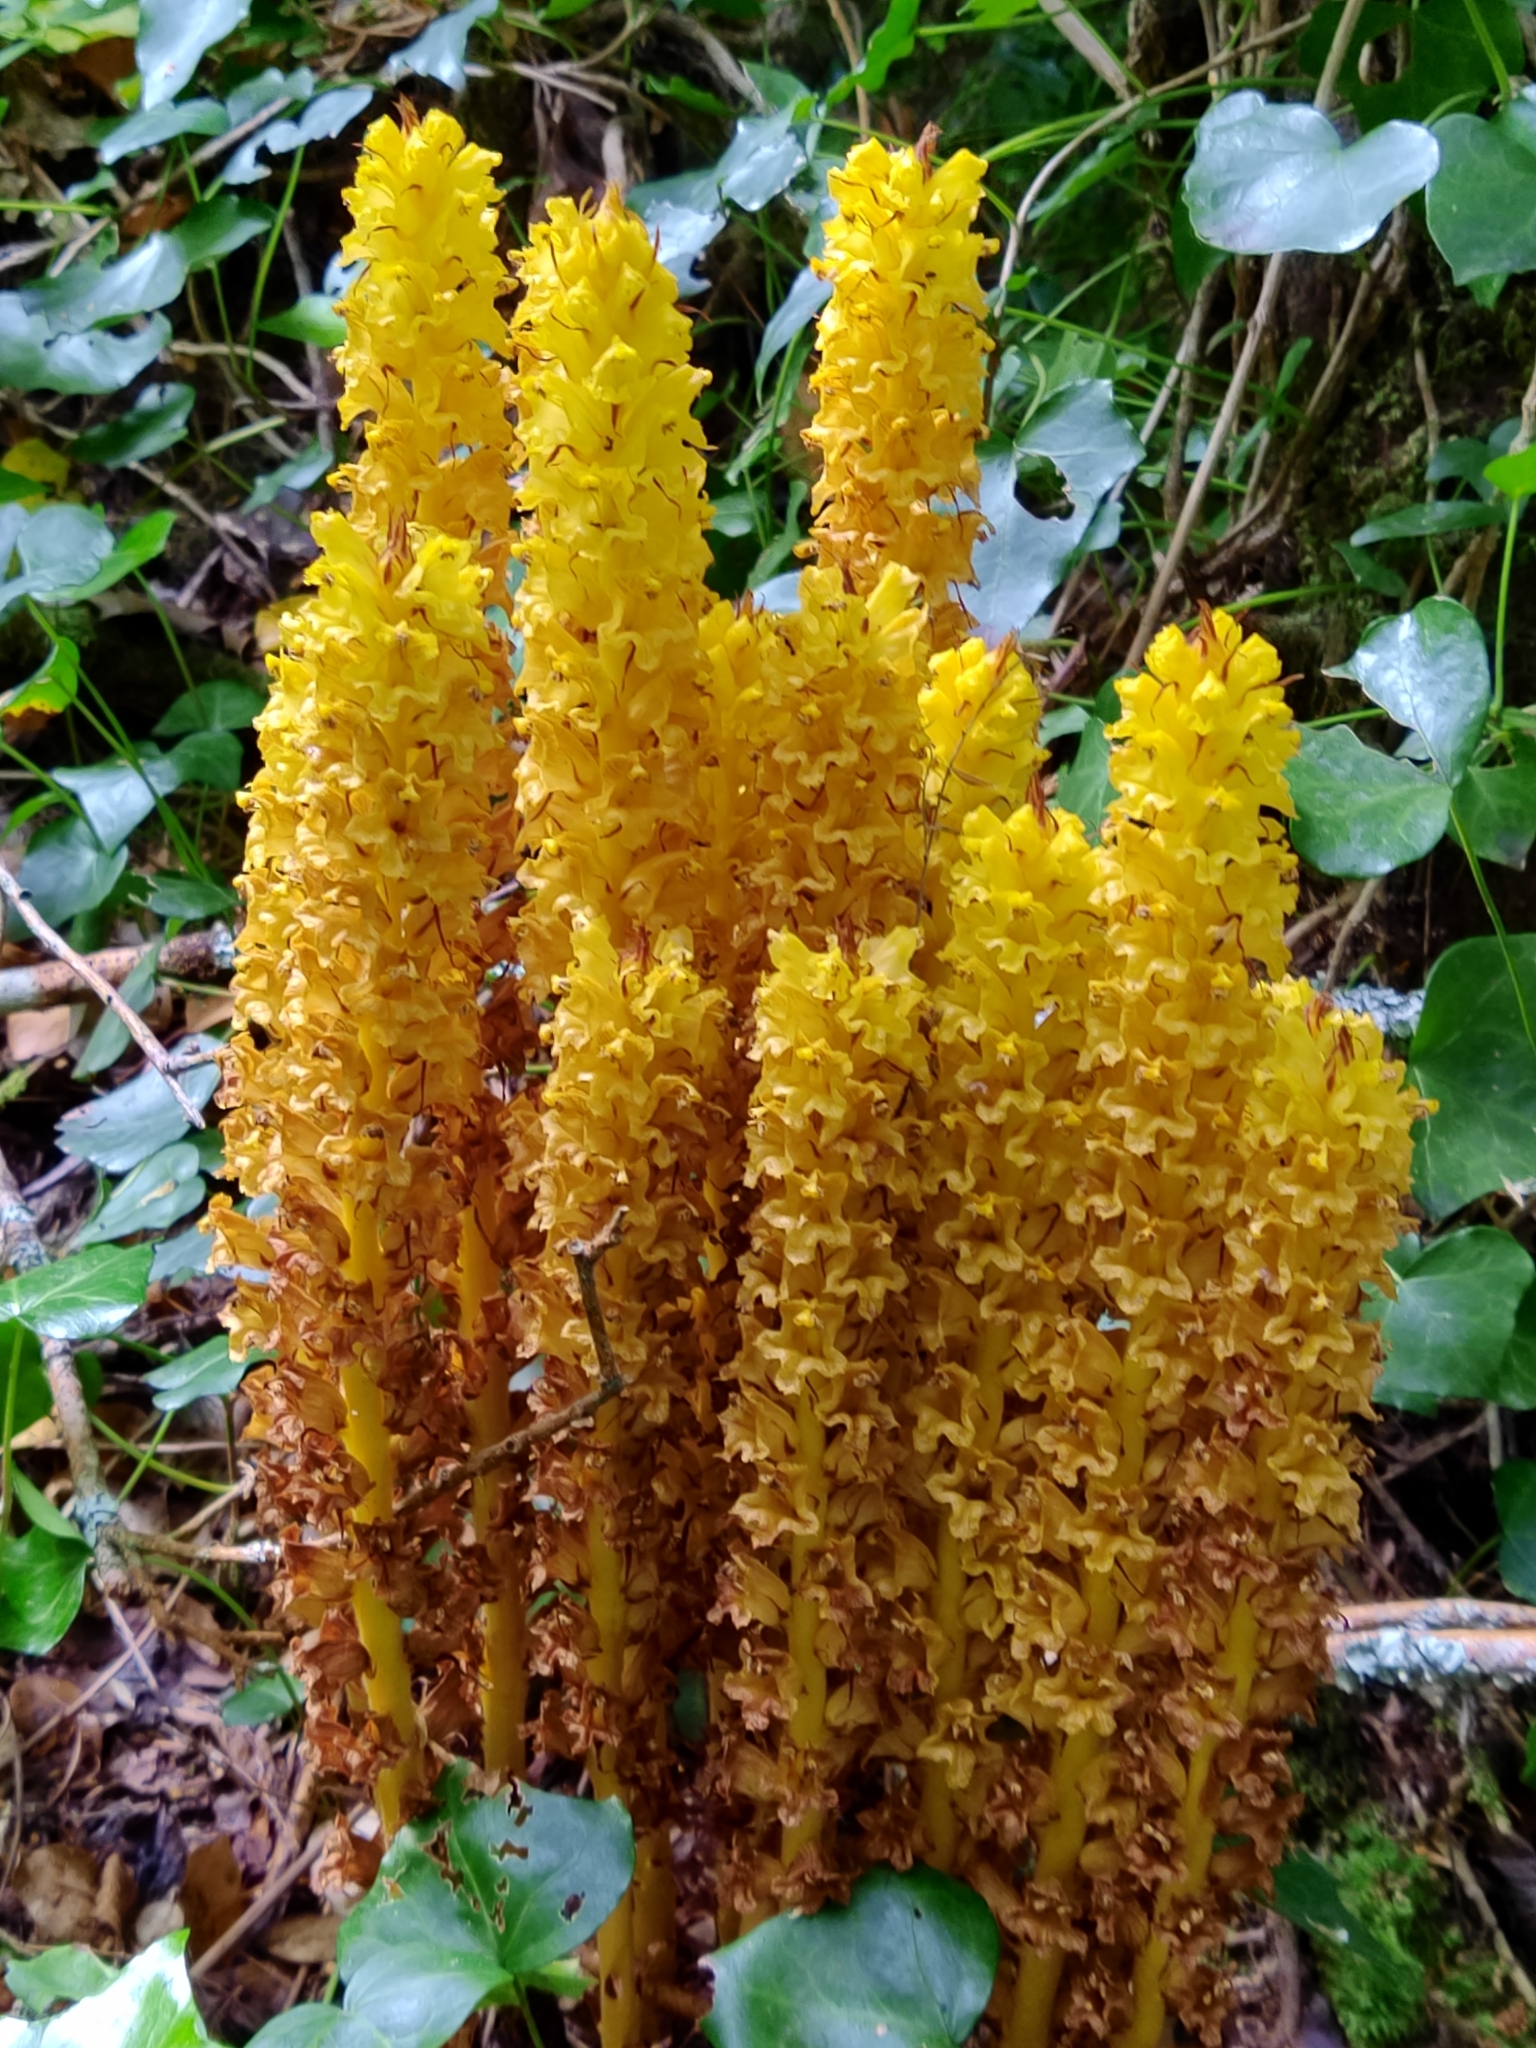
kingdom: Plantae
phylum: Tracheophyta
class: Magnoliopsida
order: Lamiales
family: Orobanchaceae
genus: Orobanche
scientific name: Orobanche rapum-genistae
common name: Greater broomrape
